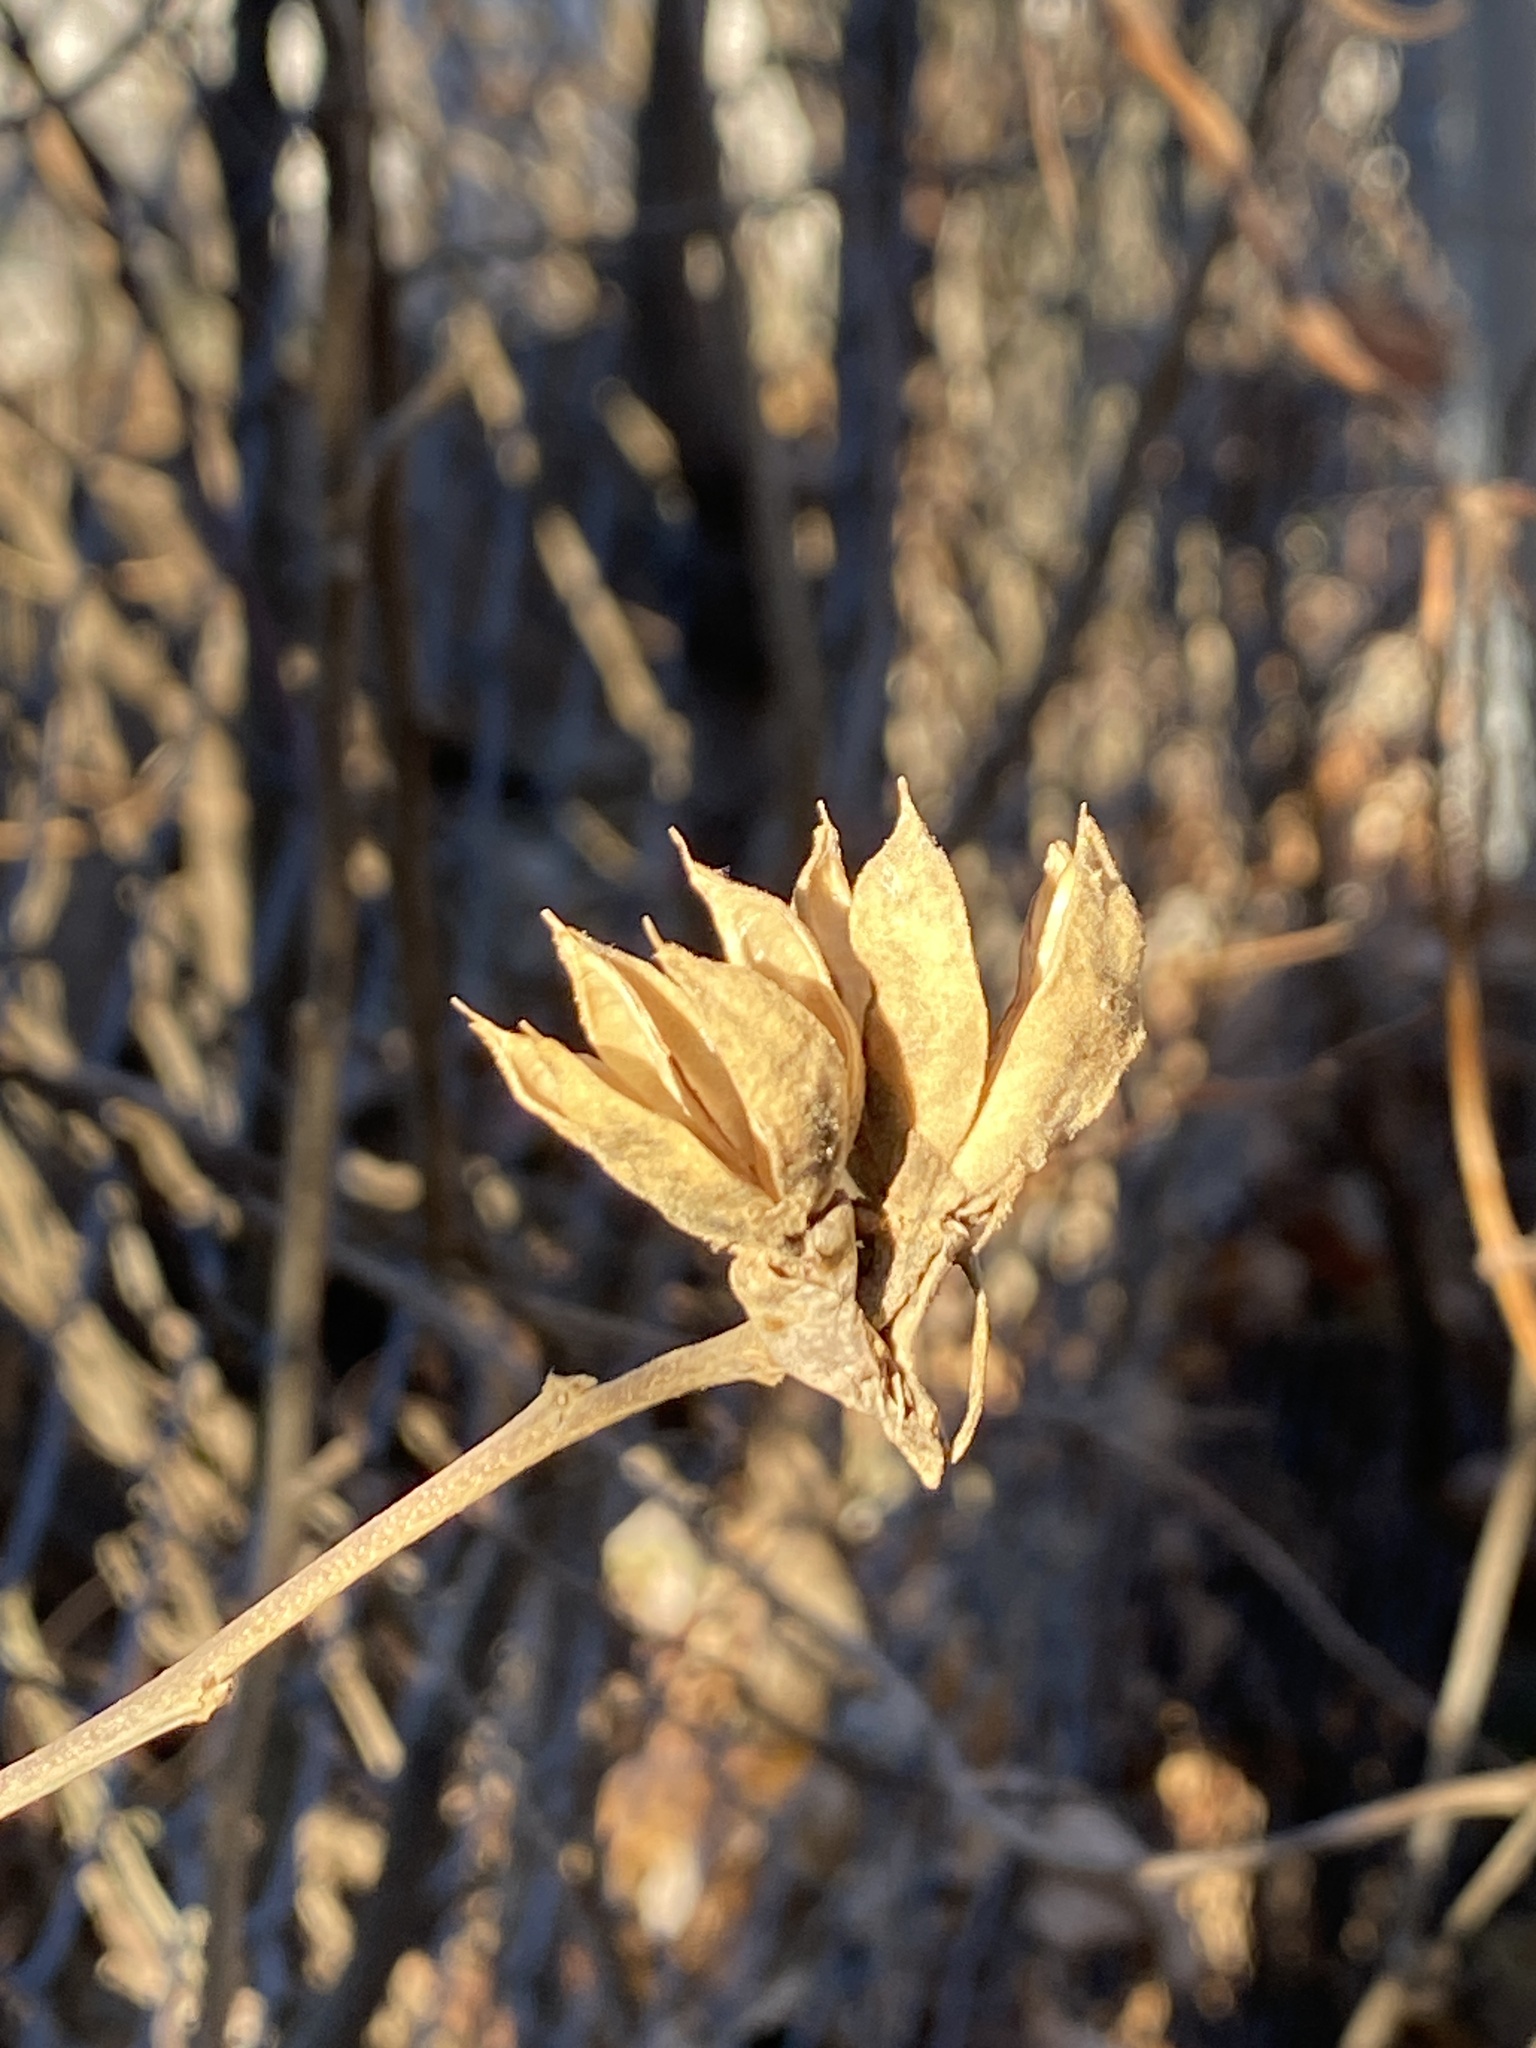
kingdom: Plantae
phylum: Tracheophyta
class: Magnoliopsida
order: Malvales
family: Malvaceae
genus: Hibiscus
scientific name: Hibiscus syriacus
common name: Syrian ketmia
